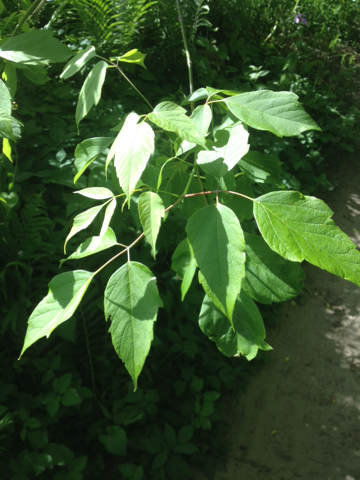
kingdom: Plantae
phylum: Tracheophyta
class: Magnoliopsida
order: Sapindales
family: Sapindaceae
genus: Acer
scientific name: Acer negundo
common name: Ashleaf maple
